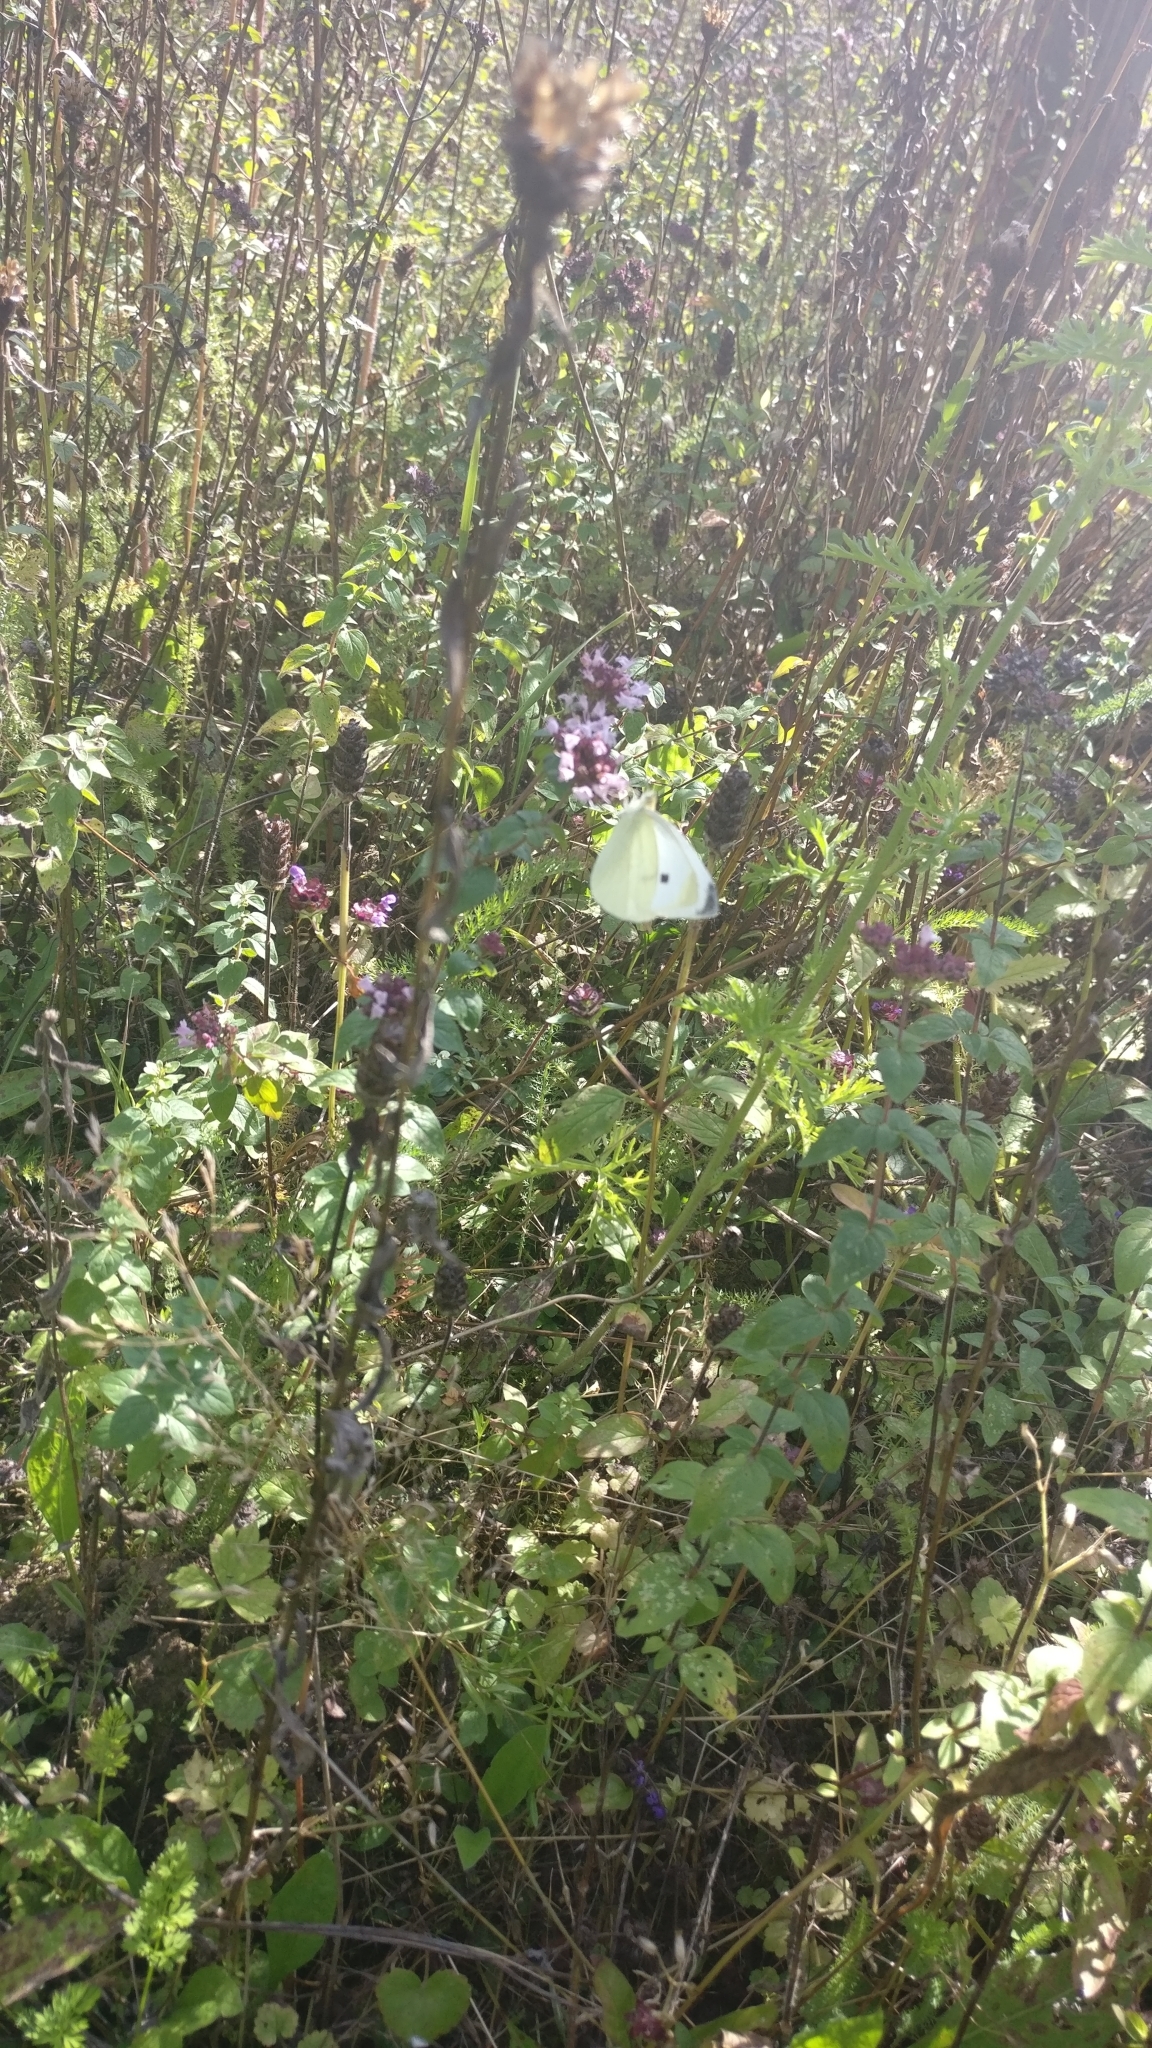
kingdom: Animalia
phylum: Arthropoda
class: Insecta
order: Lepidoptera
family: Pieridae
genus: Pieris
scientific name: Pieris rapae
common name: Small white
